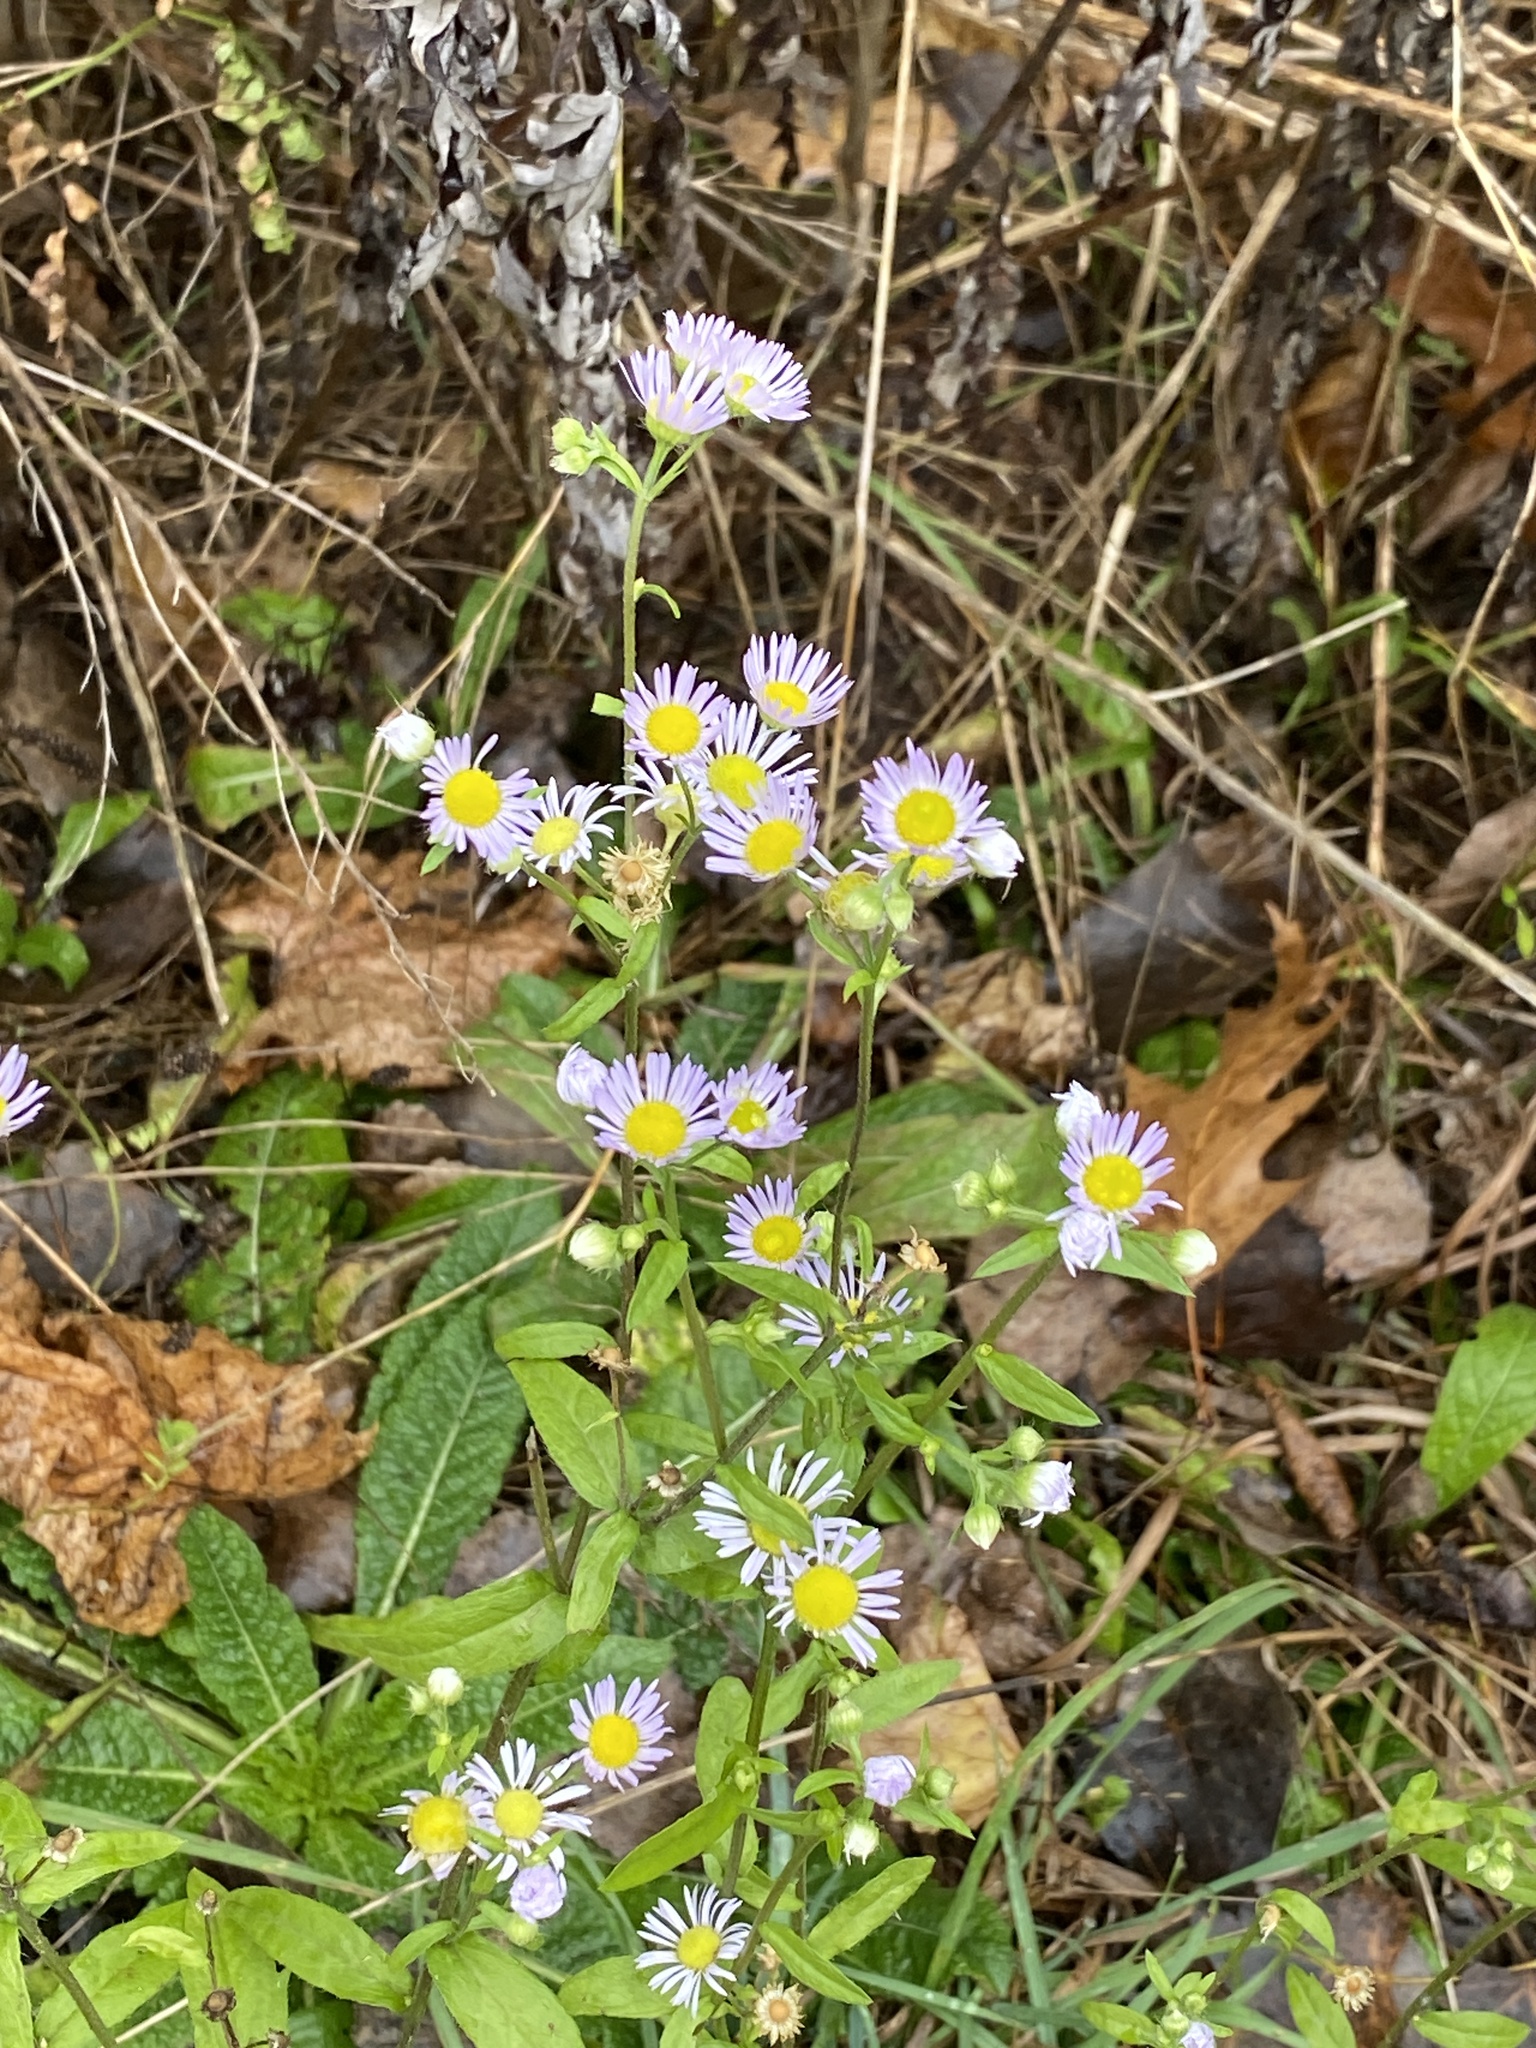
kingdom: Plantae
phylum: Tracheophyta
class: Magnoliopsida
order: Asterales
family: Asteraceae
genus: Erigeron
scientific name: Erigeron annuus
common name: Tall fleabane
